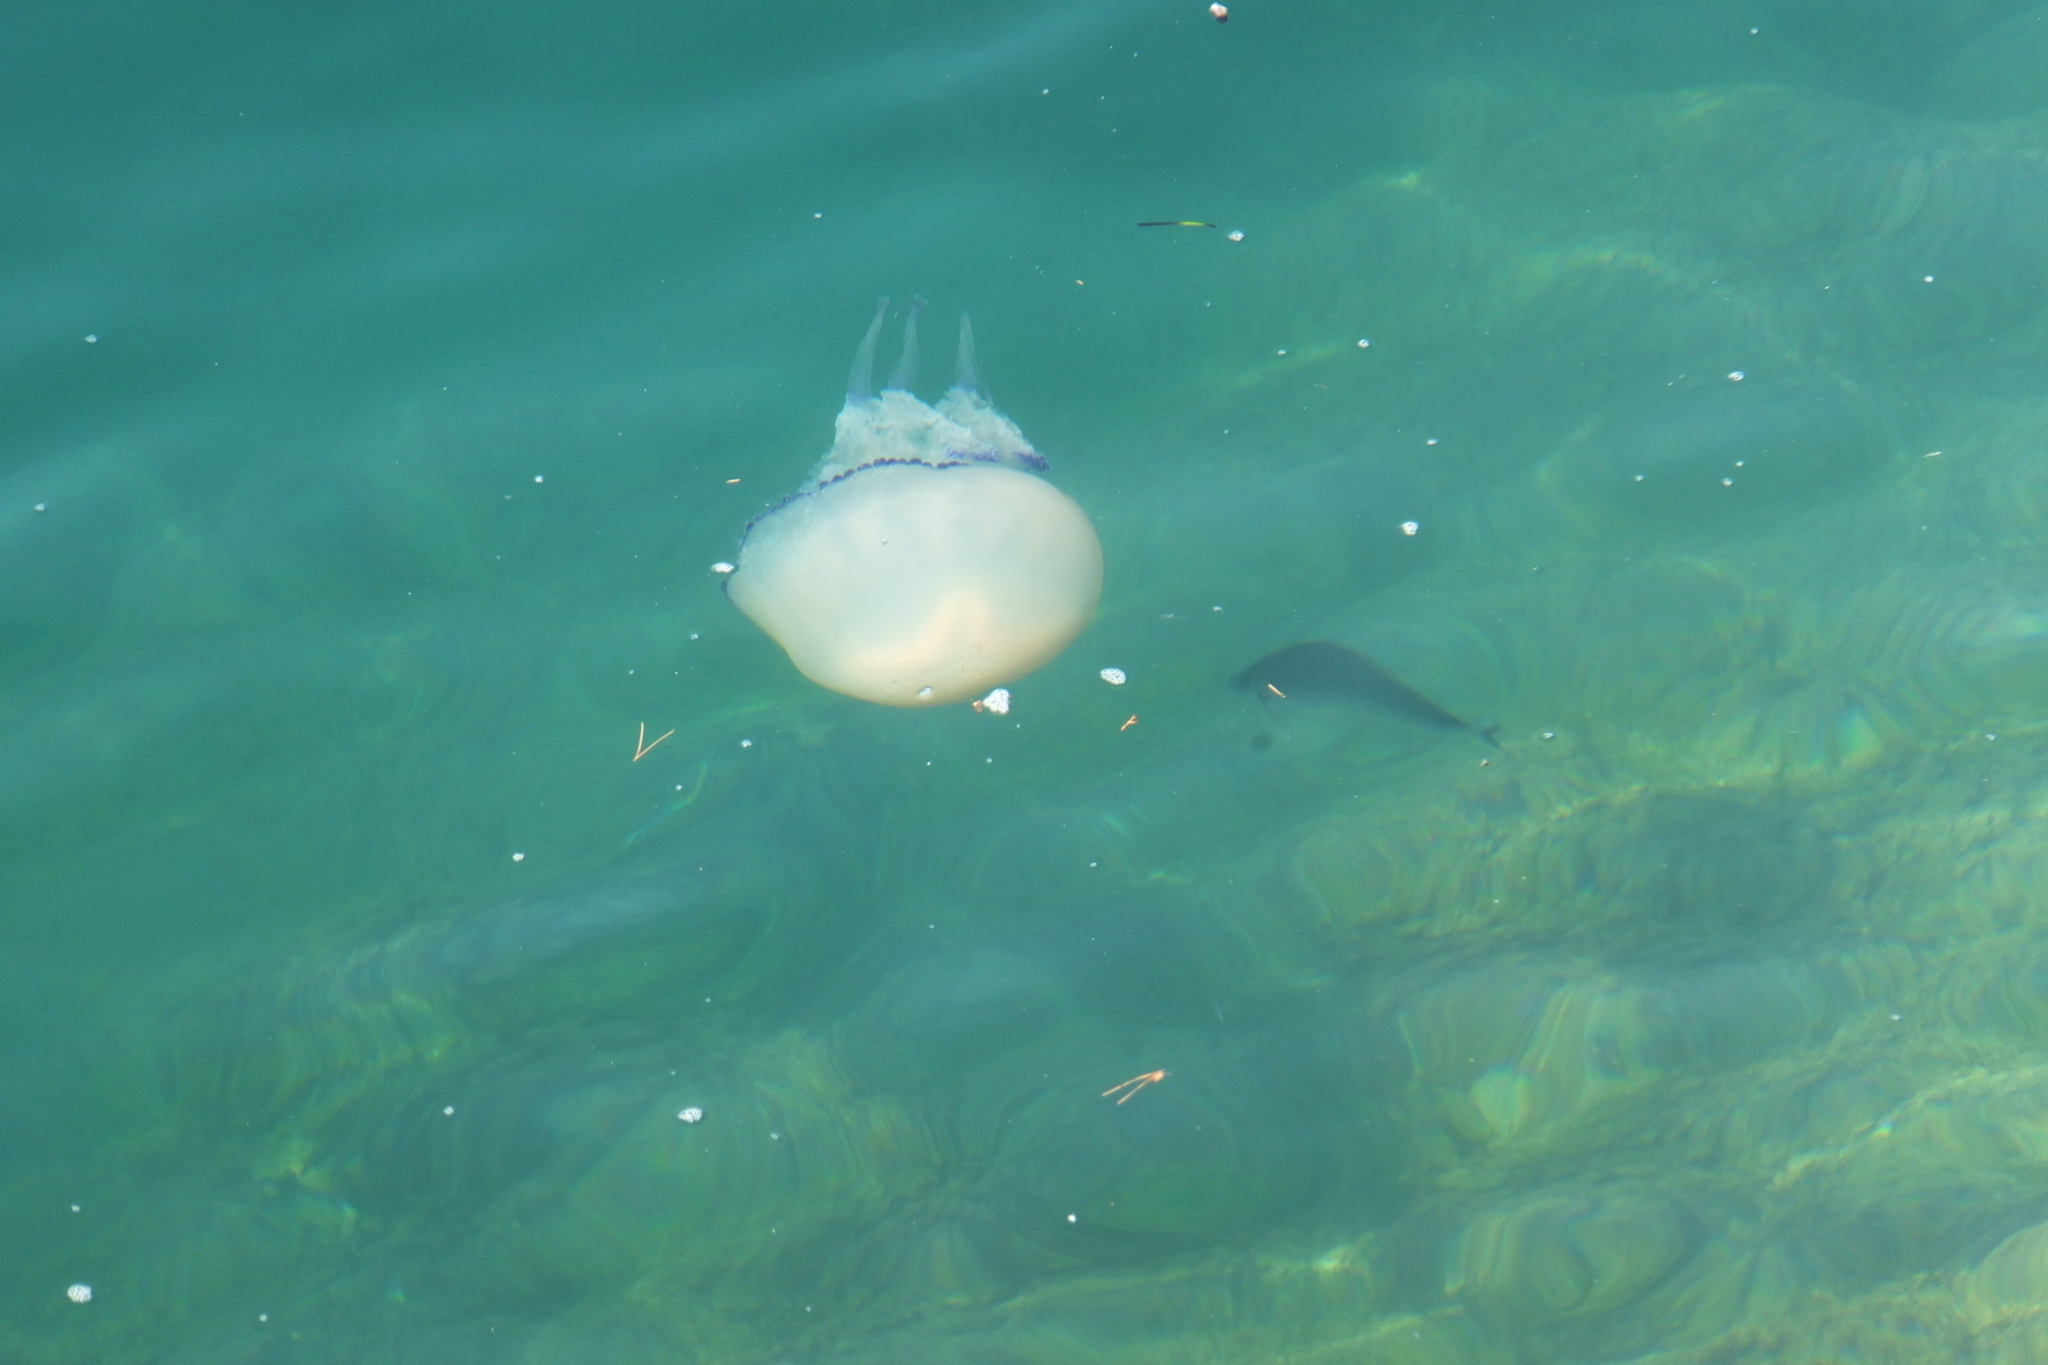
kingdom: Animalia
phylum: Cnidaria
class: Scyphozoa
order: Rhizostomeae
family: Rhizostomatidae
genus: Rhizostoma
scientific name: Rhizostoma pulmo
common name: Barrel jellyfish
